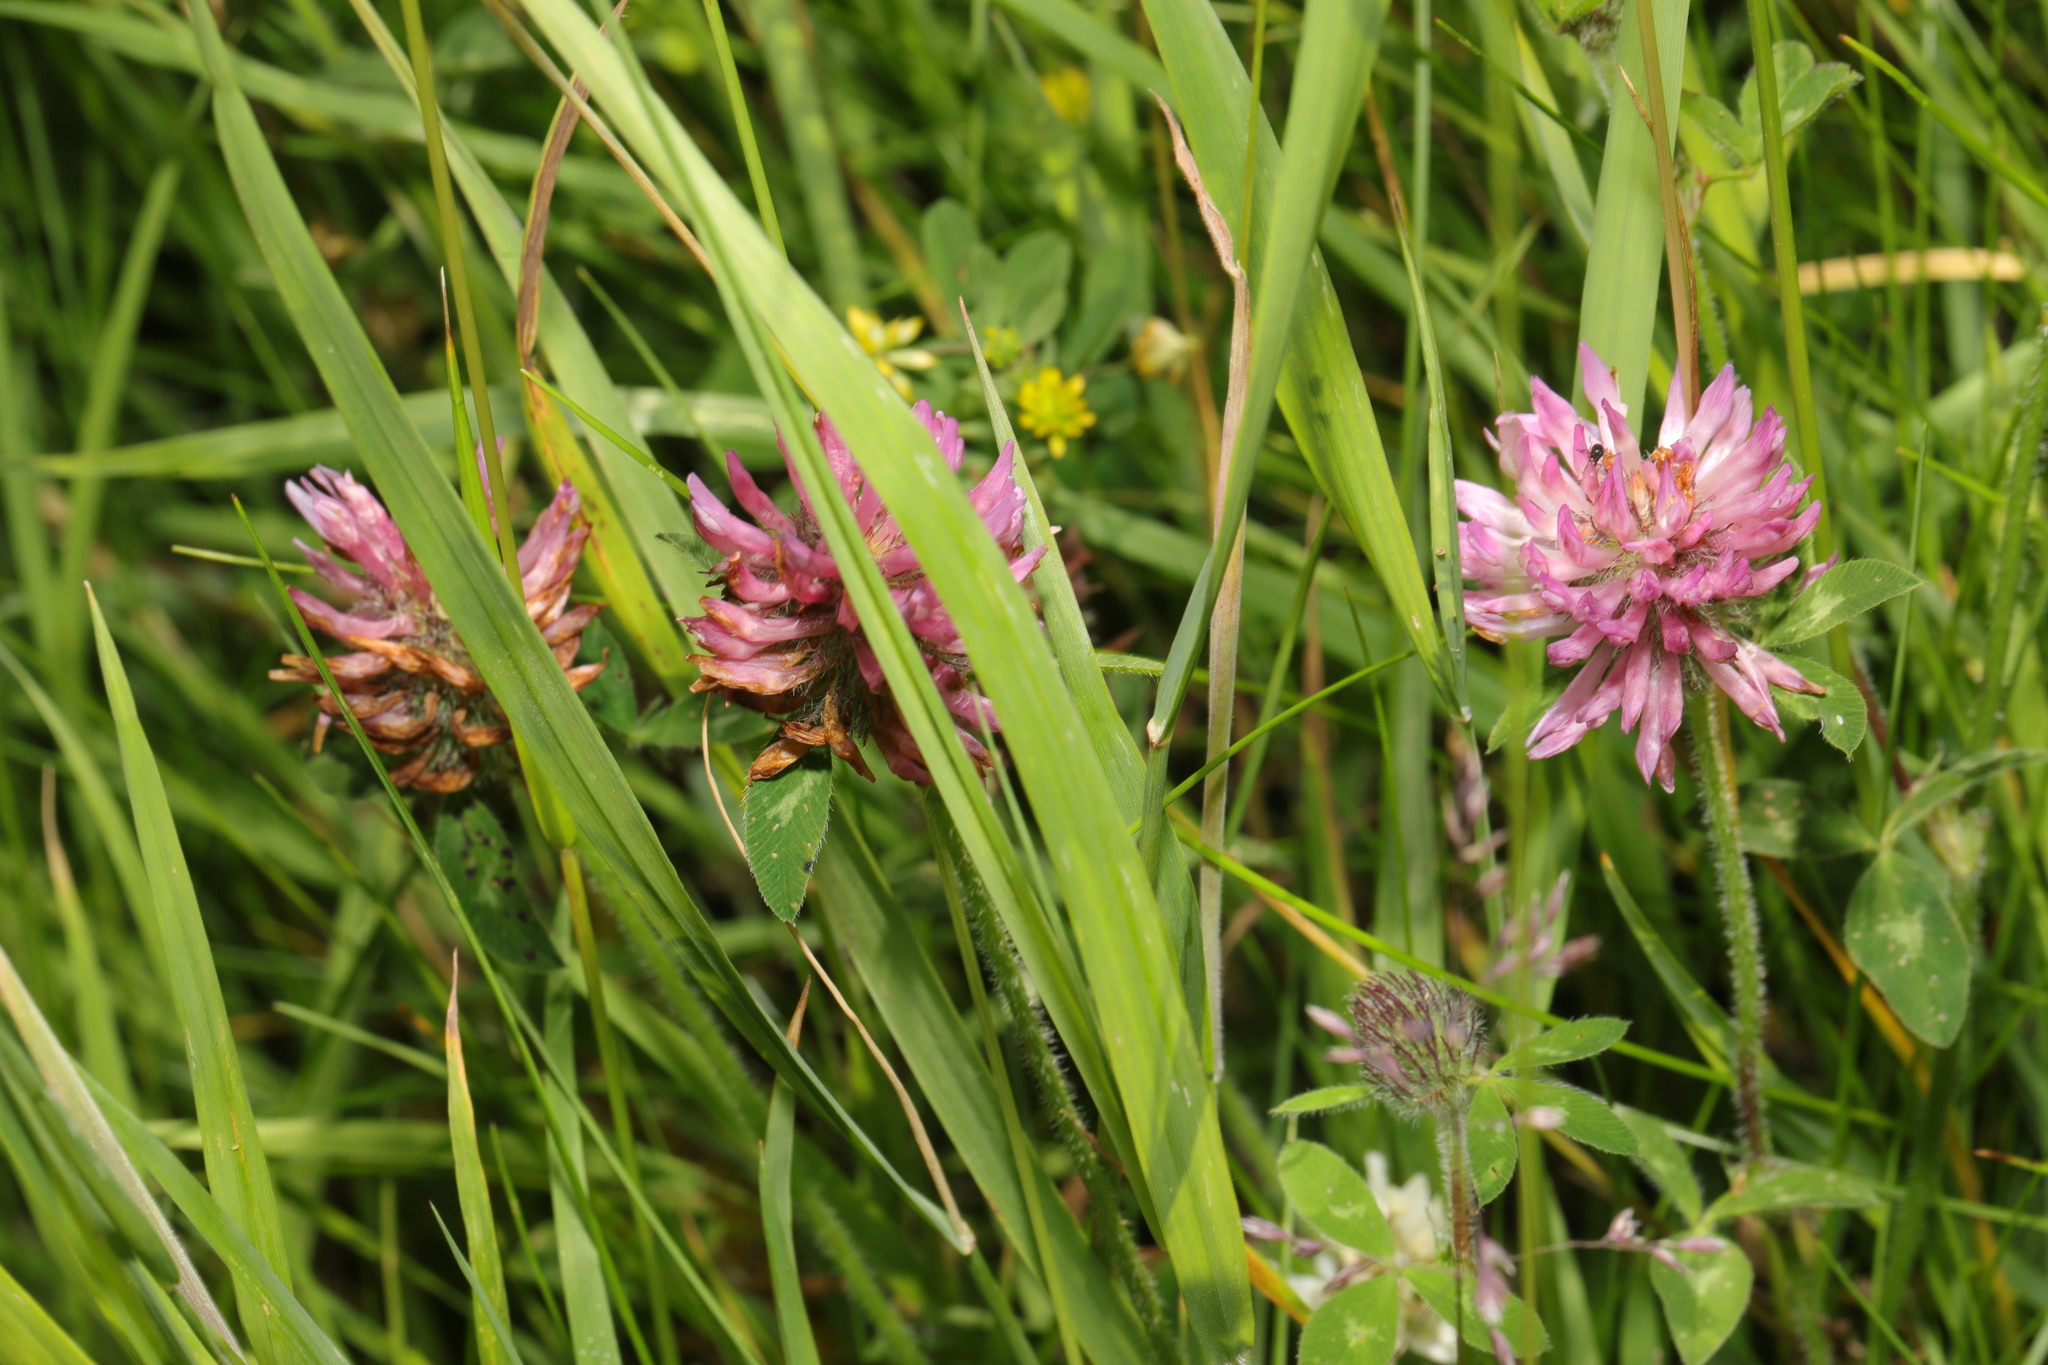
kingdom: Plantae
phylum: Tracheophyta
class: Magnoliopsida
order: Fabales
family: Fabaceae
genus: Trifolium
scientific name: Trifolium pratense
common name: Red clover
